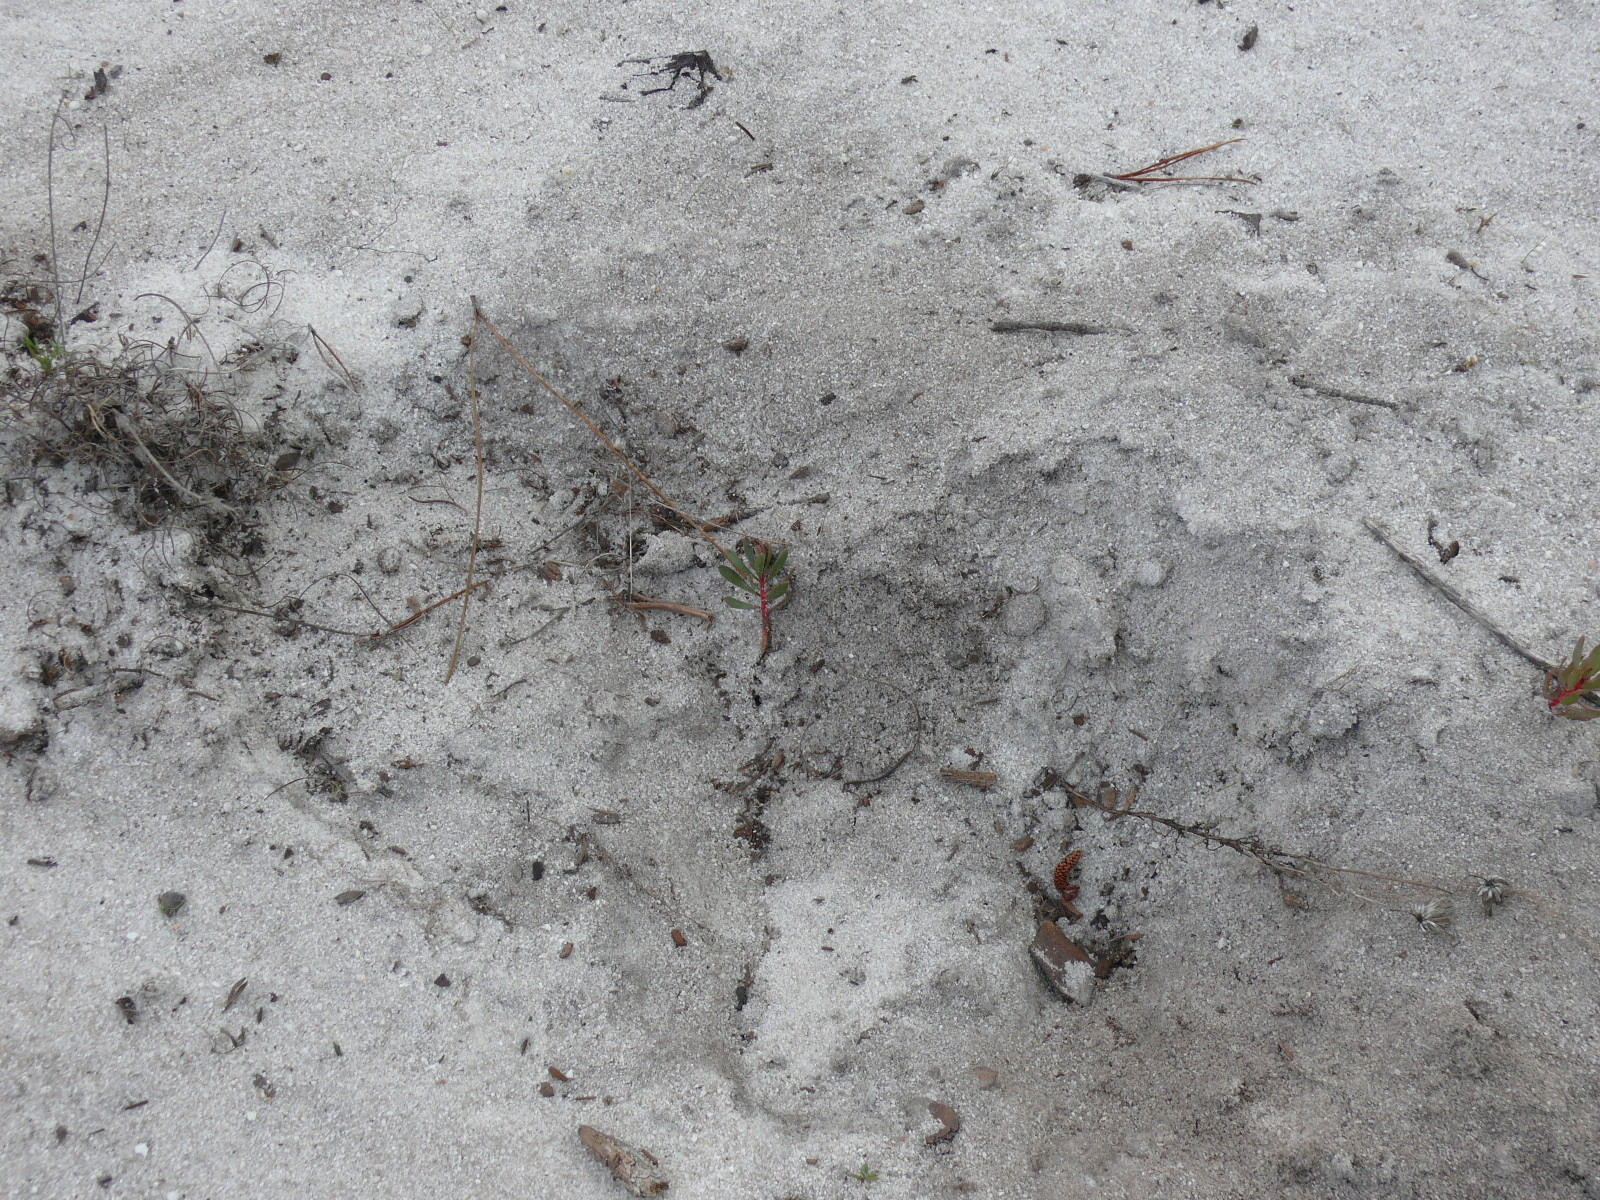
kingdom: Plantae
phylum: Tracheophyta
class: Magnoliopsida
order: Proteales
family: Proteaceae
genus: Protea
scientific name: Protea scolymocephala
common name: Thistle sugarbush
